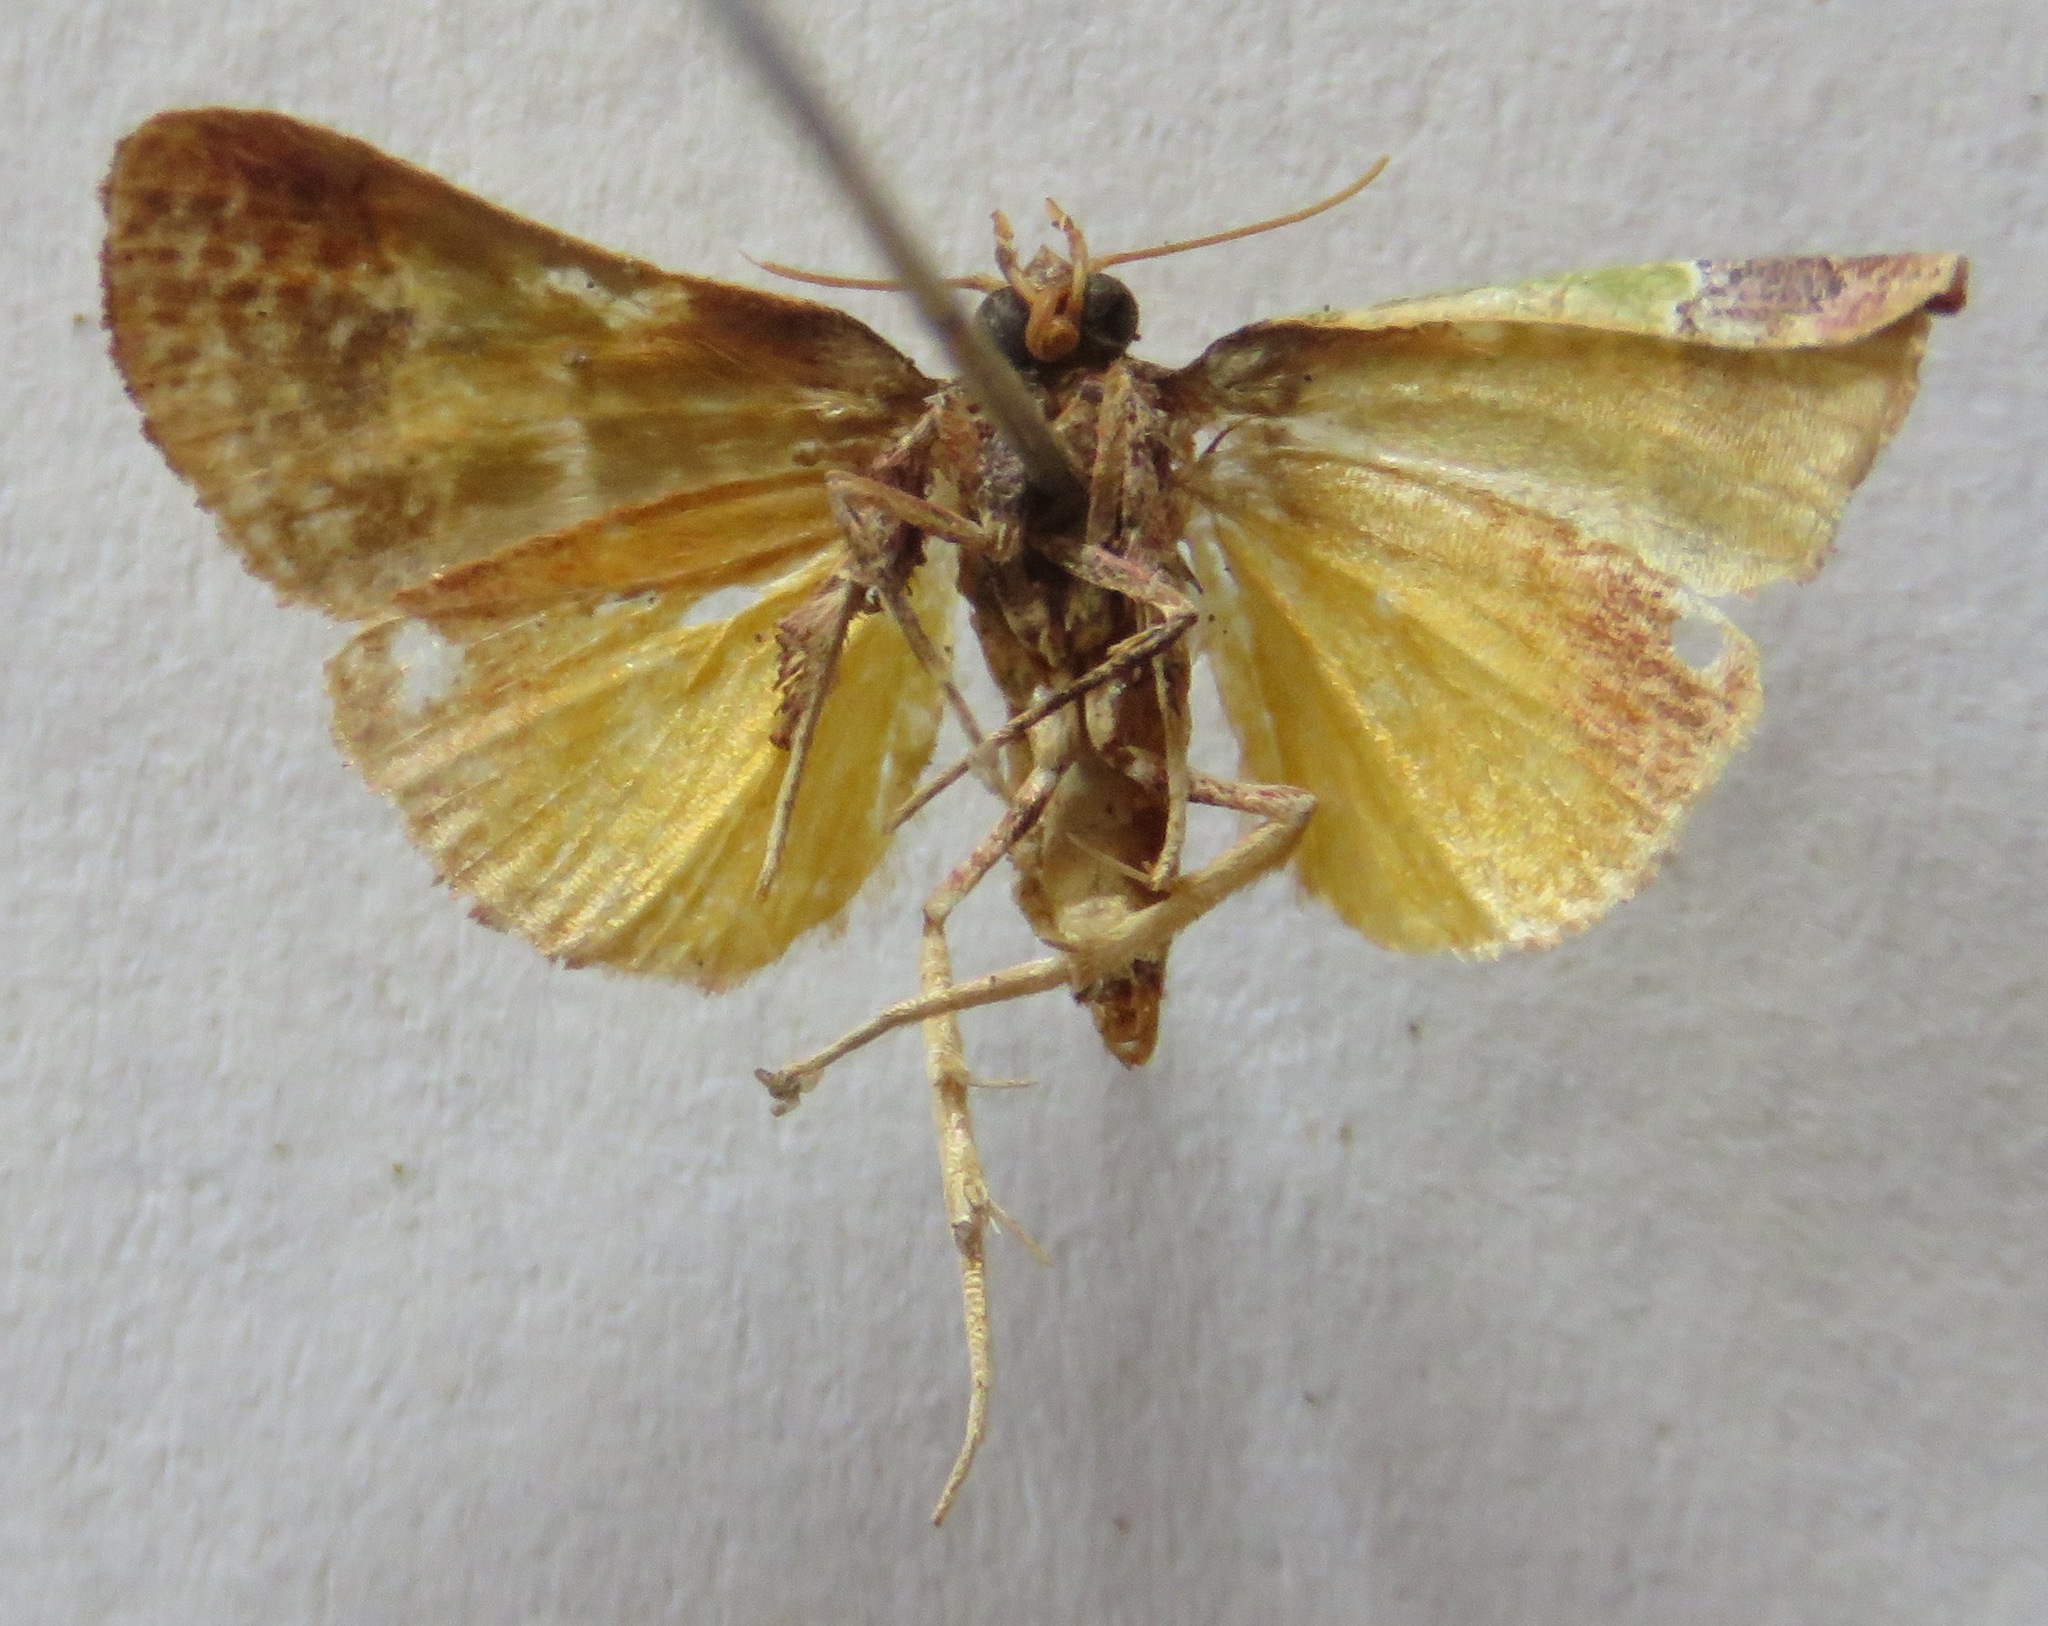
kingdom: Animalia
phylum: Arthropoda
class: Insecta
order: Lepidoptera
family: Pyralidae
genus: Epidelia
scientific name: Epidelia damia
